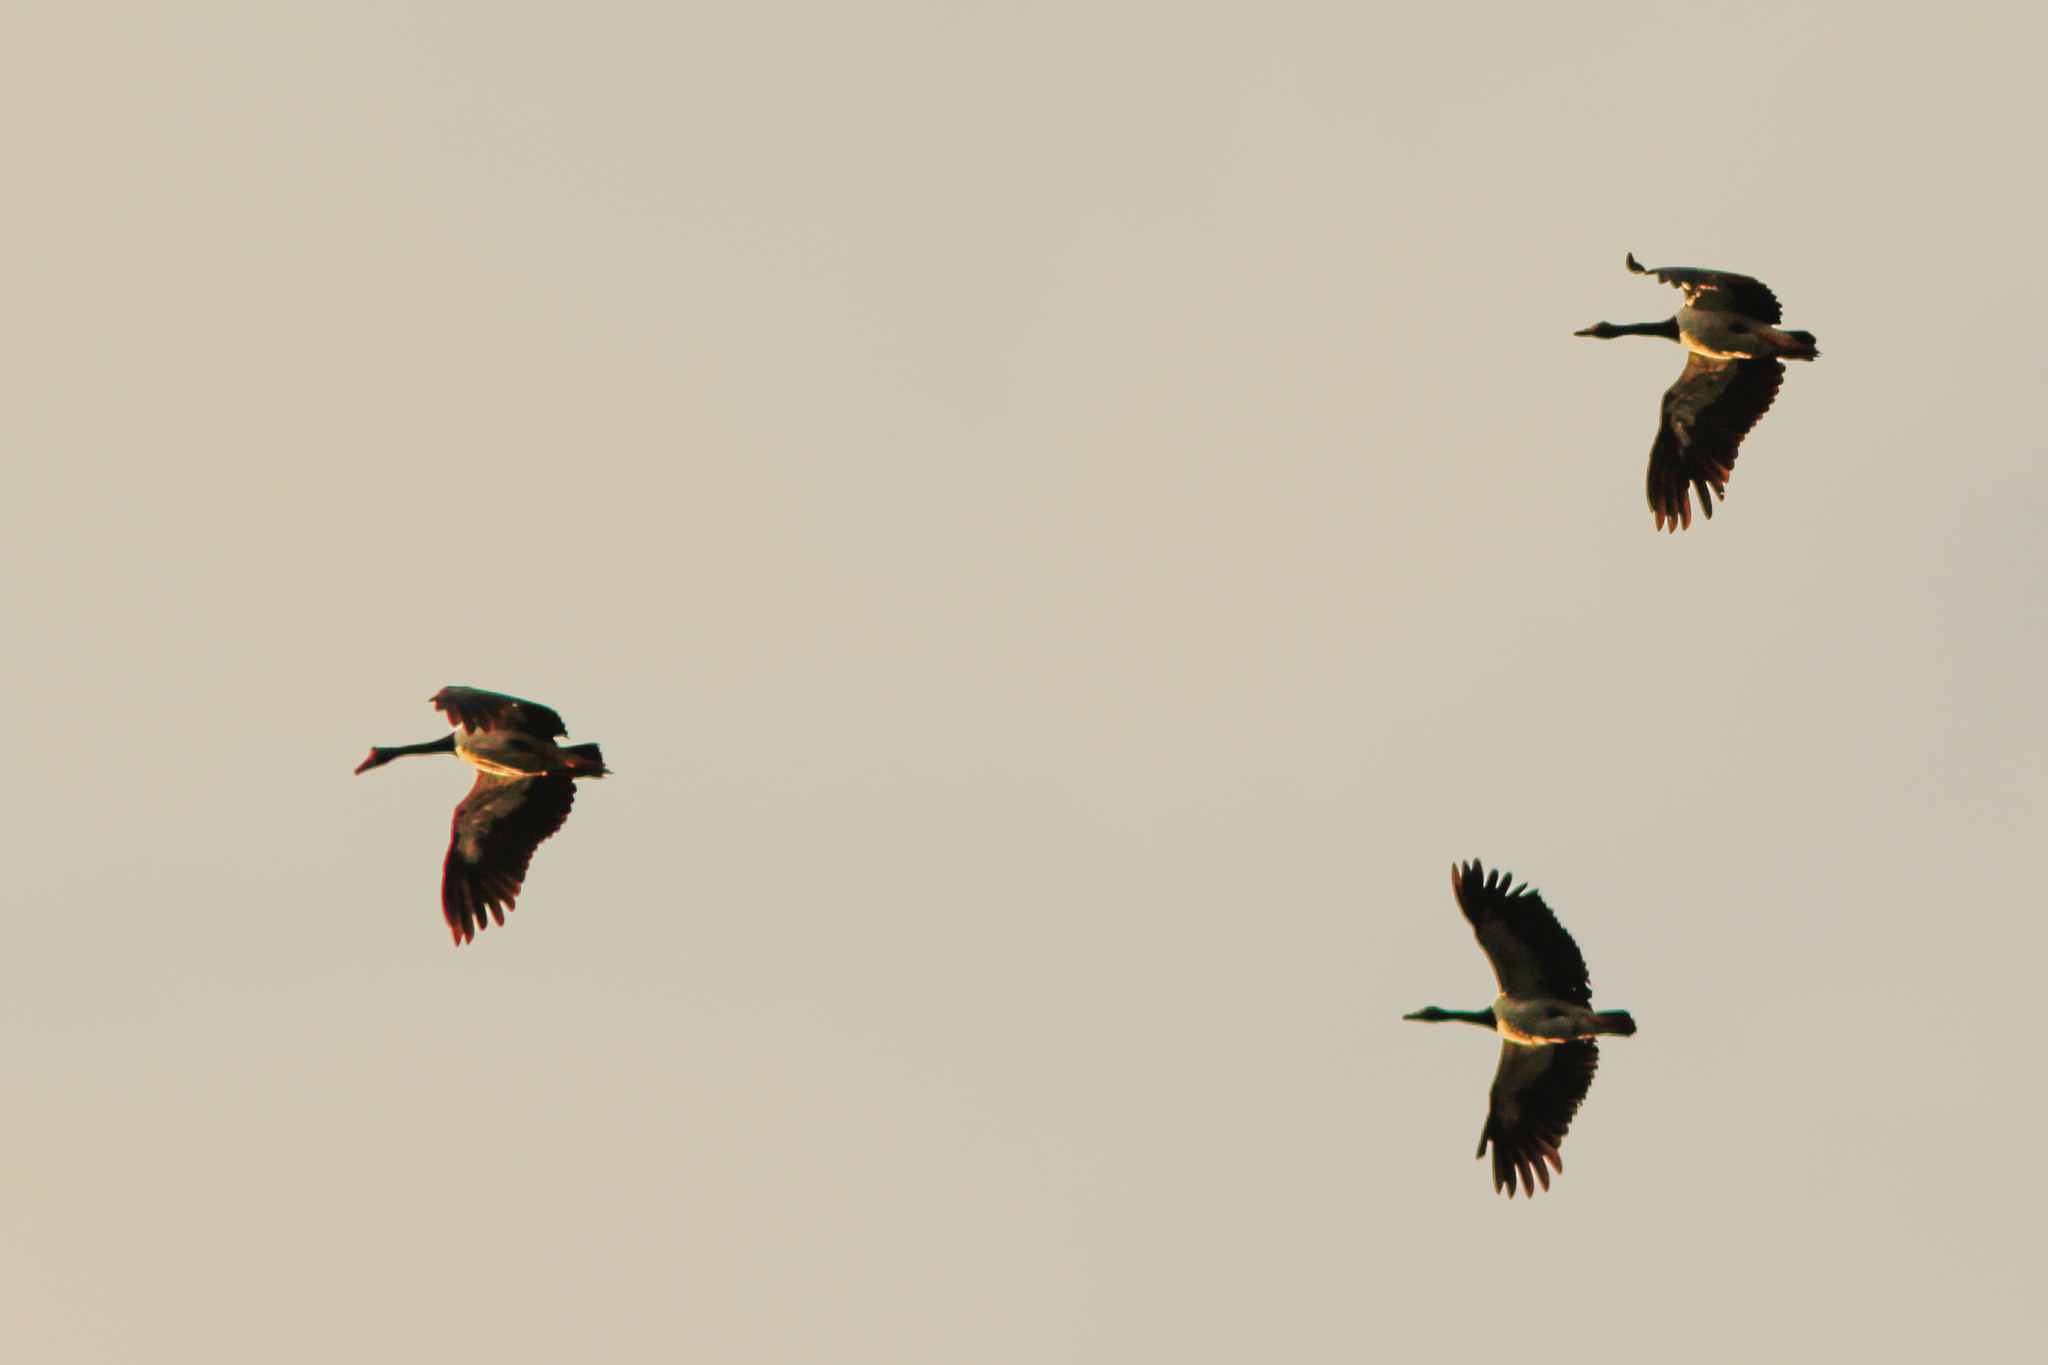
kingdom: Animalia
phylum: Chordata
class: Aves
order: Anseriformes
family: Anseranatidae
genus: Anseranas
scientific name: Anseranas semipalmata
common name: Magpie goose
